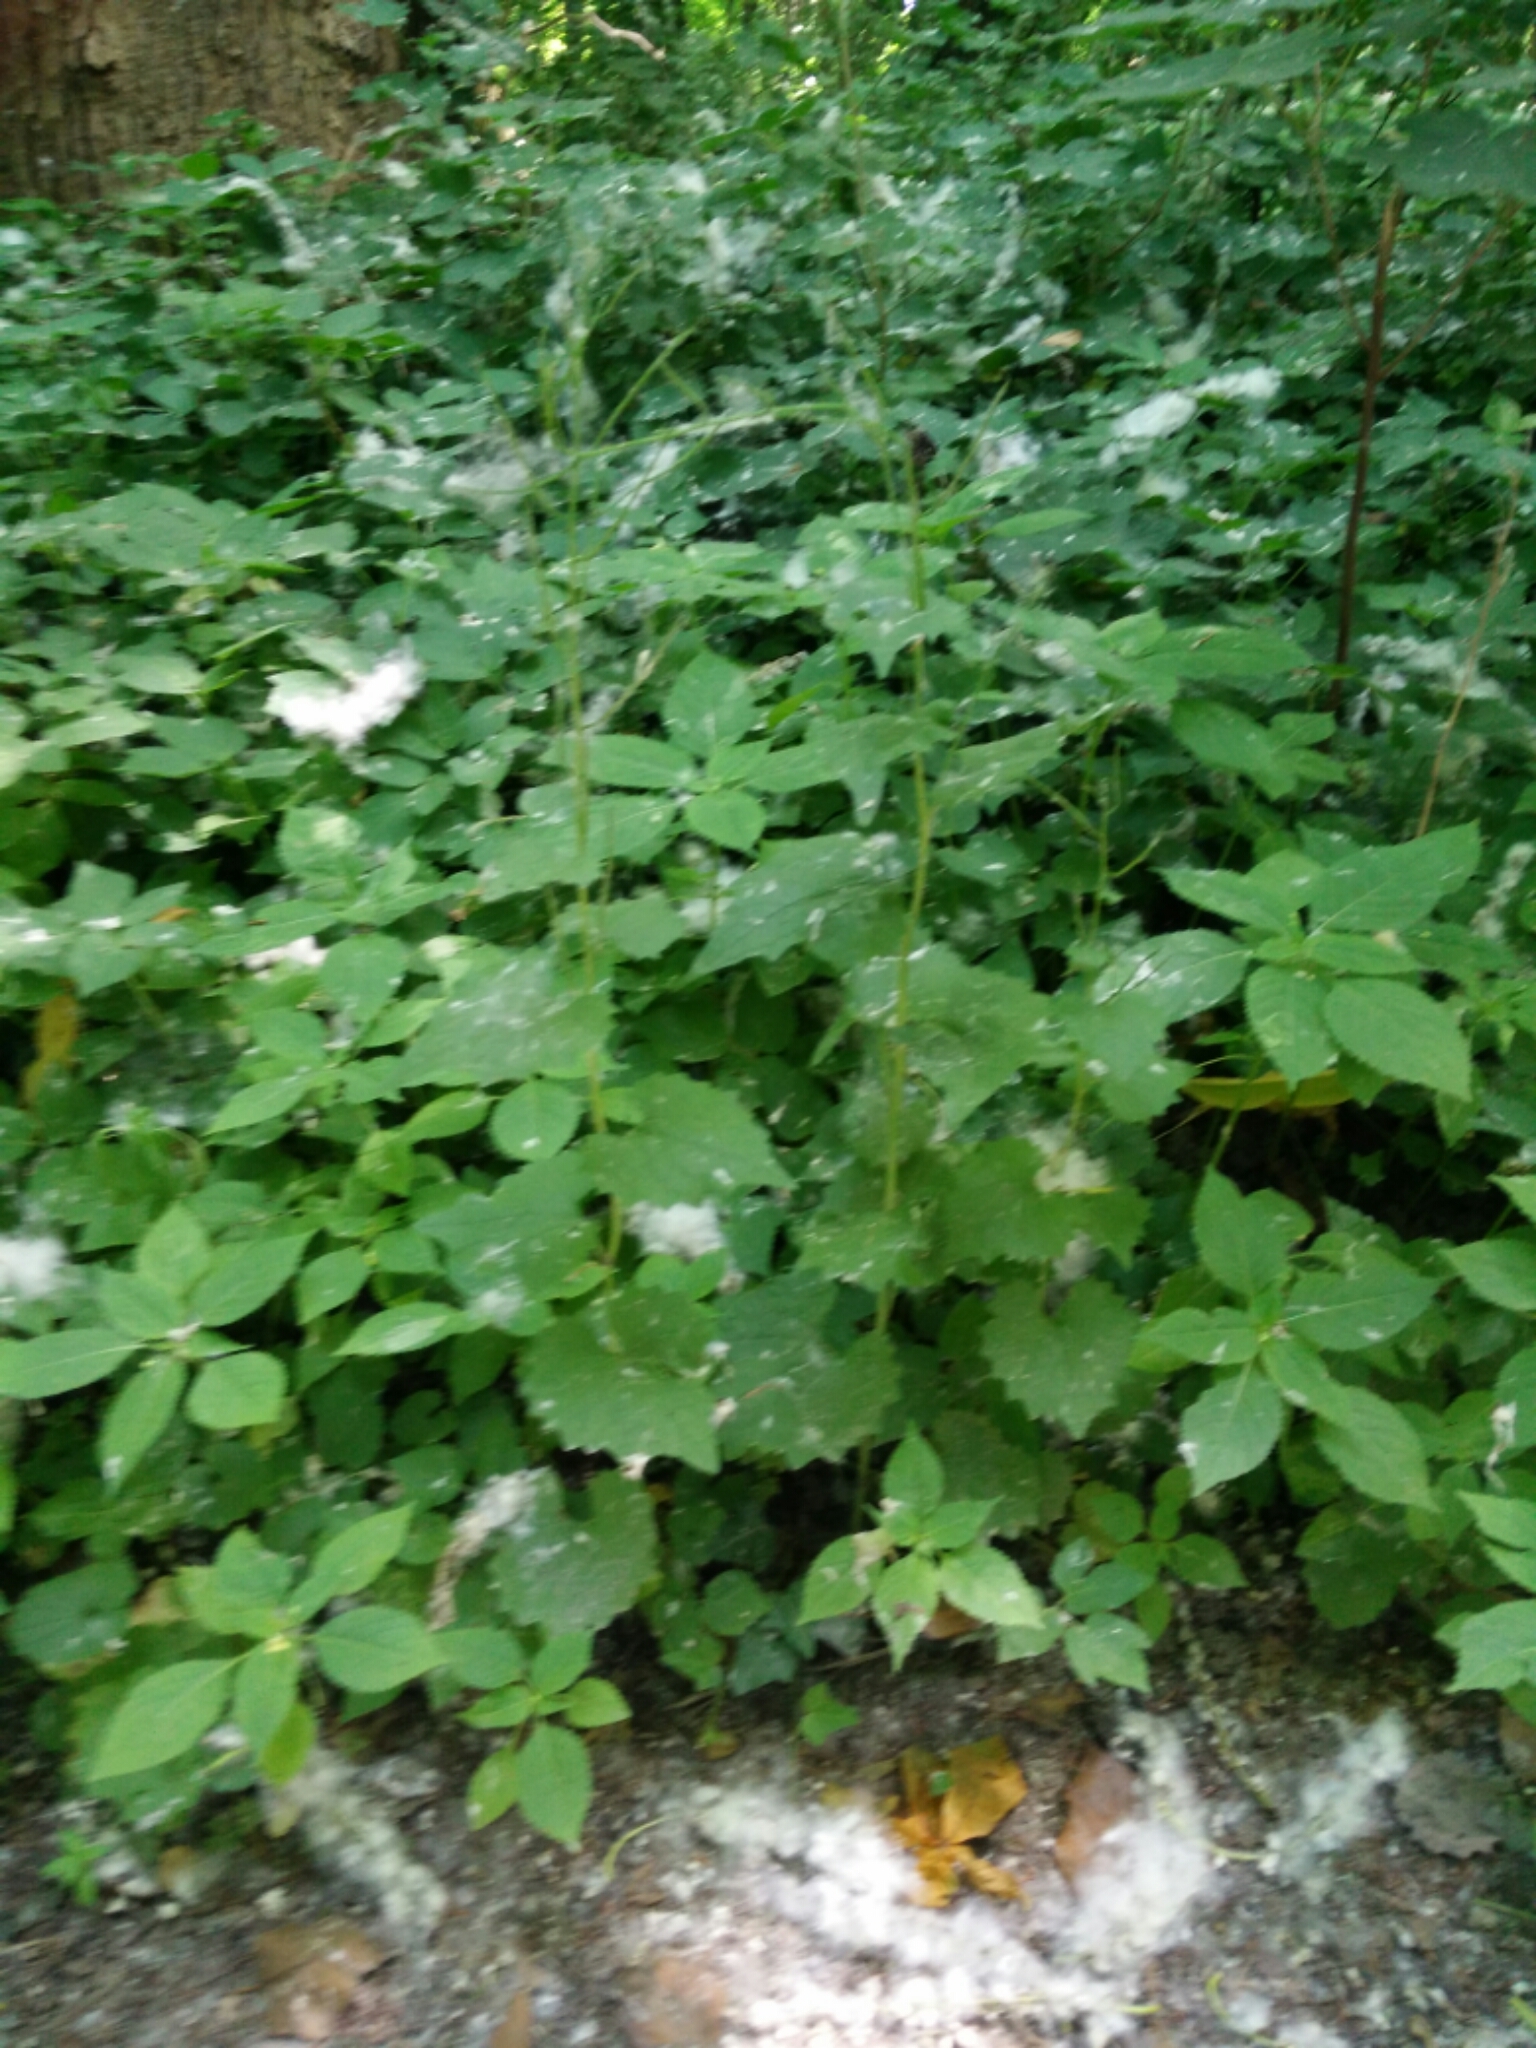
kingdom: Plantae
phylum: Tracheophyta
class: Magnoliopsida
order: Brassicales
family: Brassicaceae
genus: Alliaria
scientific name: Alliaria petiolata
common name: Garlic mustard
